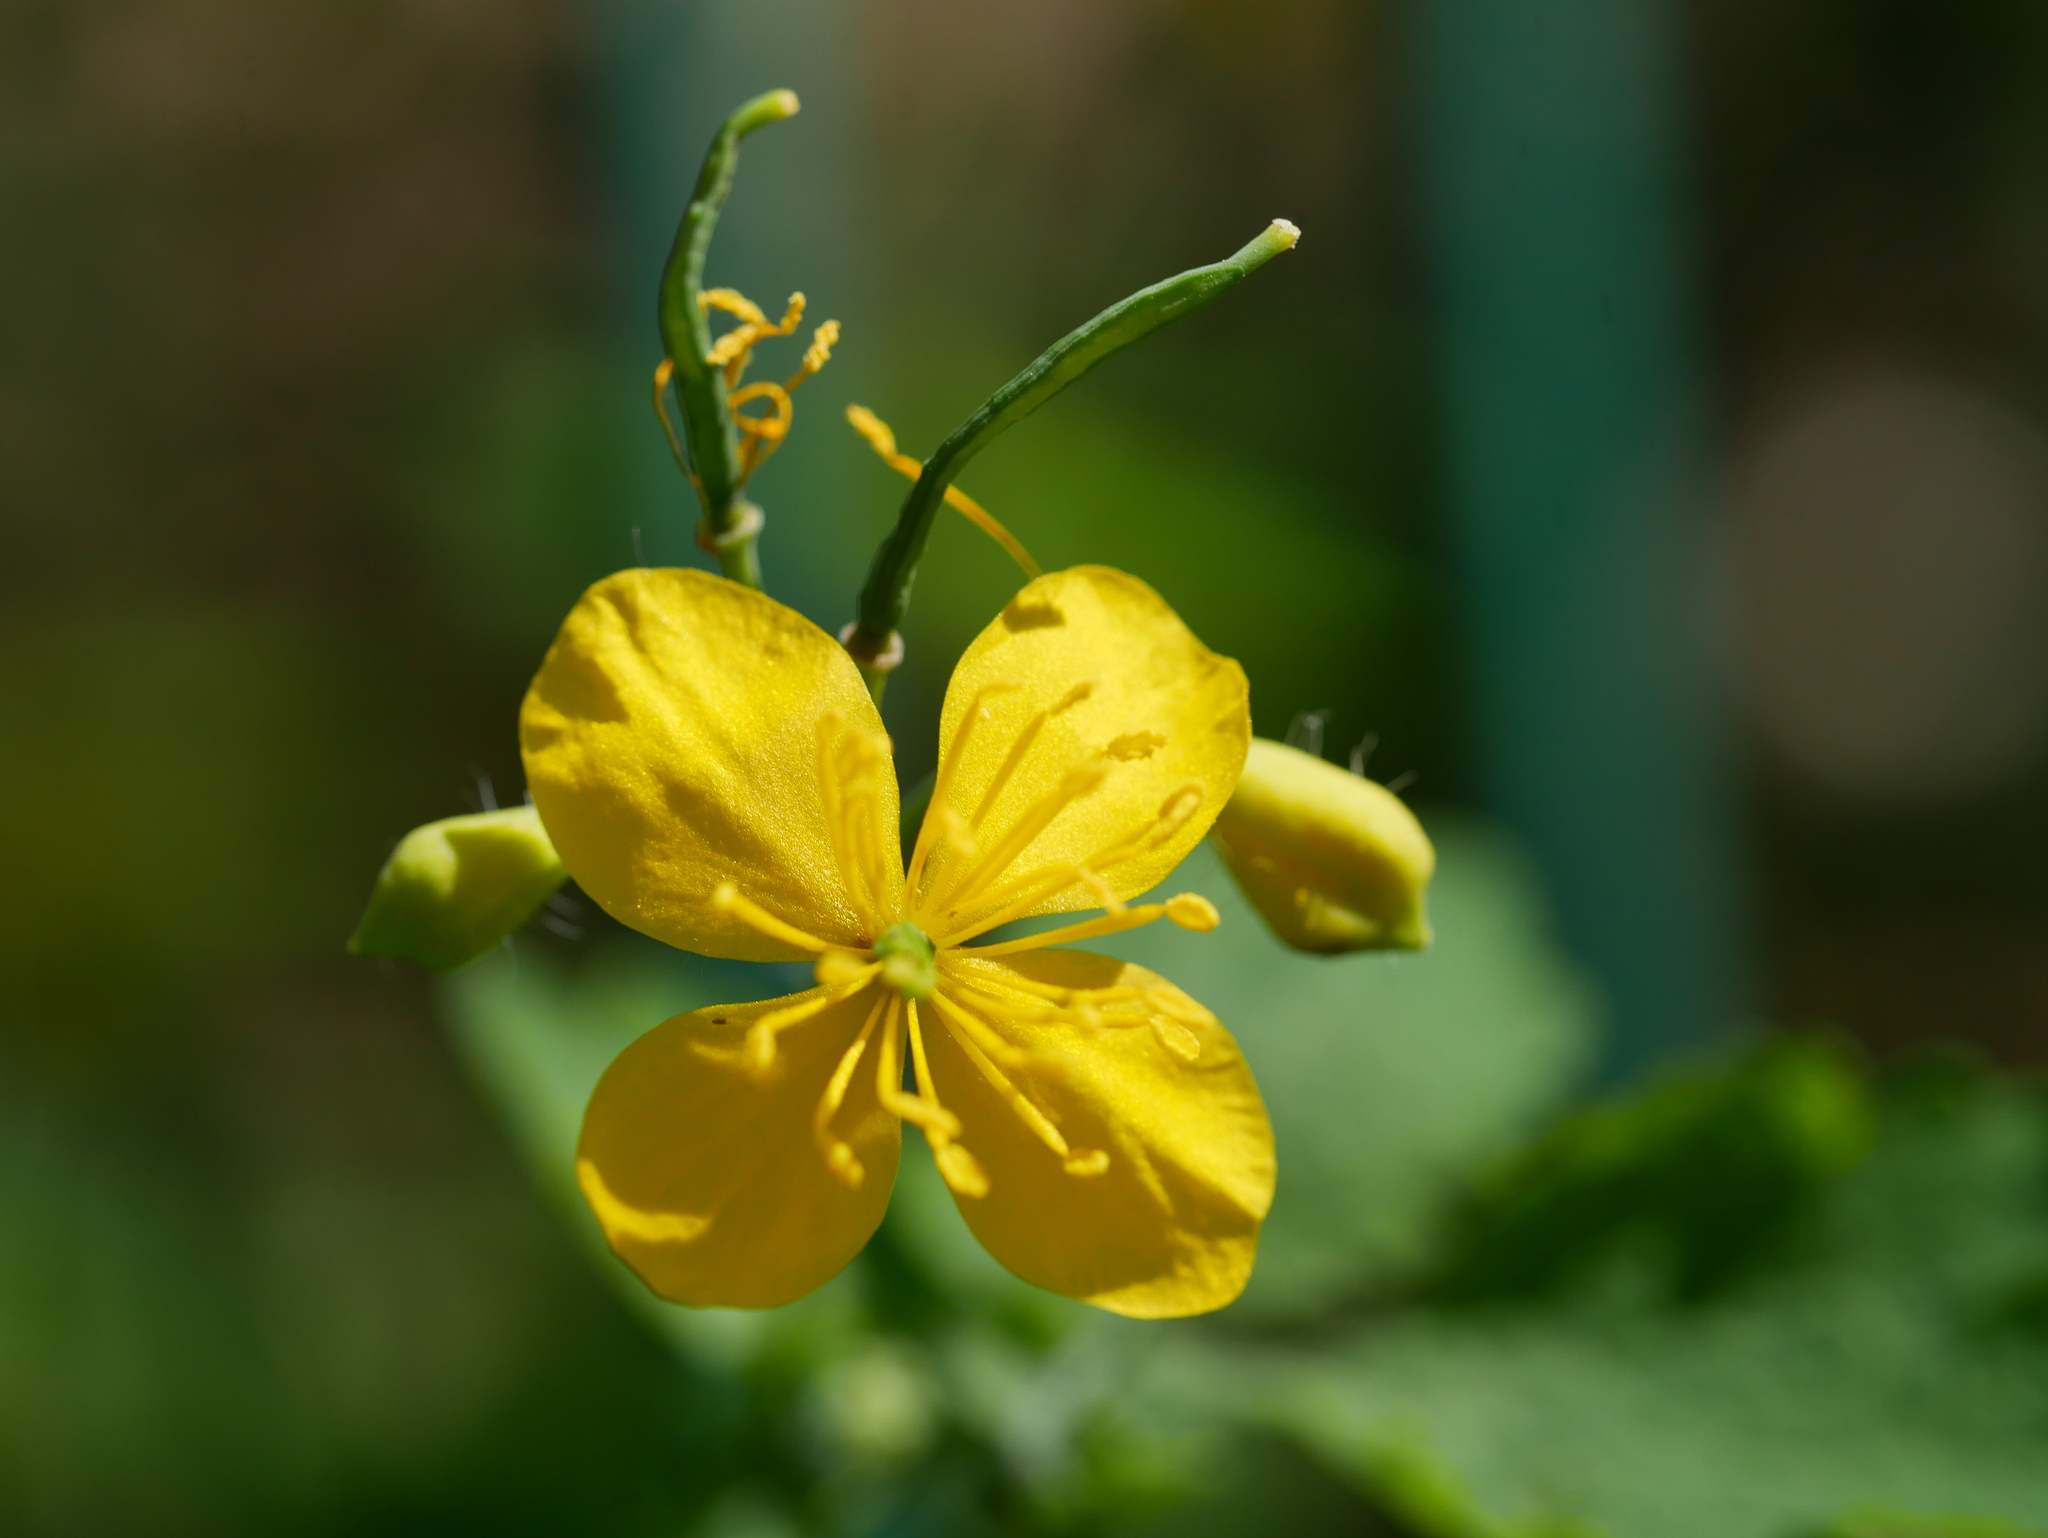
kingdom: Plantae
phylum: Tracheophyta
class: Magnoliopsida
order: Ranunculales
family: Papaveraceae
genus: Chelidonium
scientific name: Chelidonium majus
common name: Greater celandine
